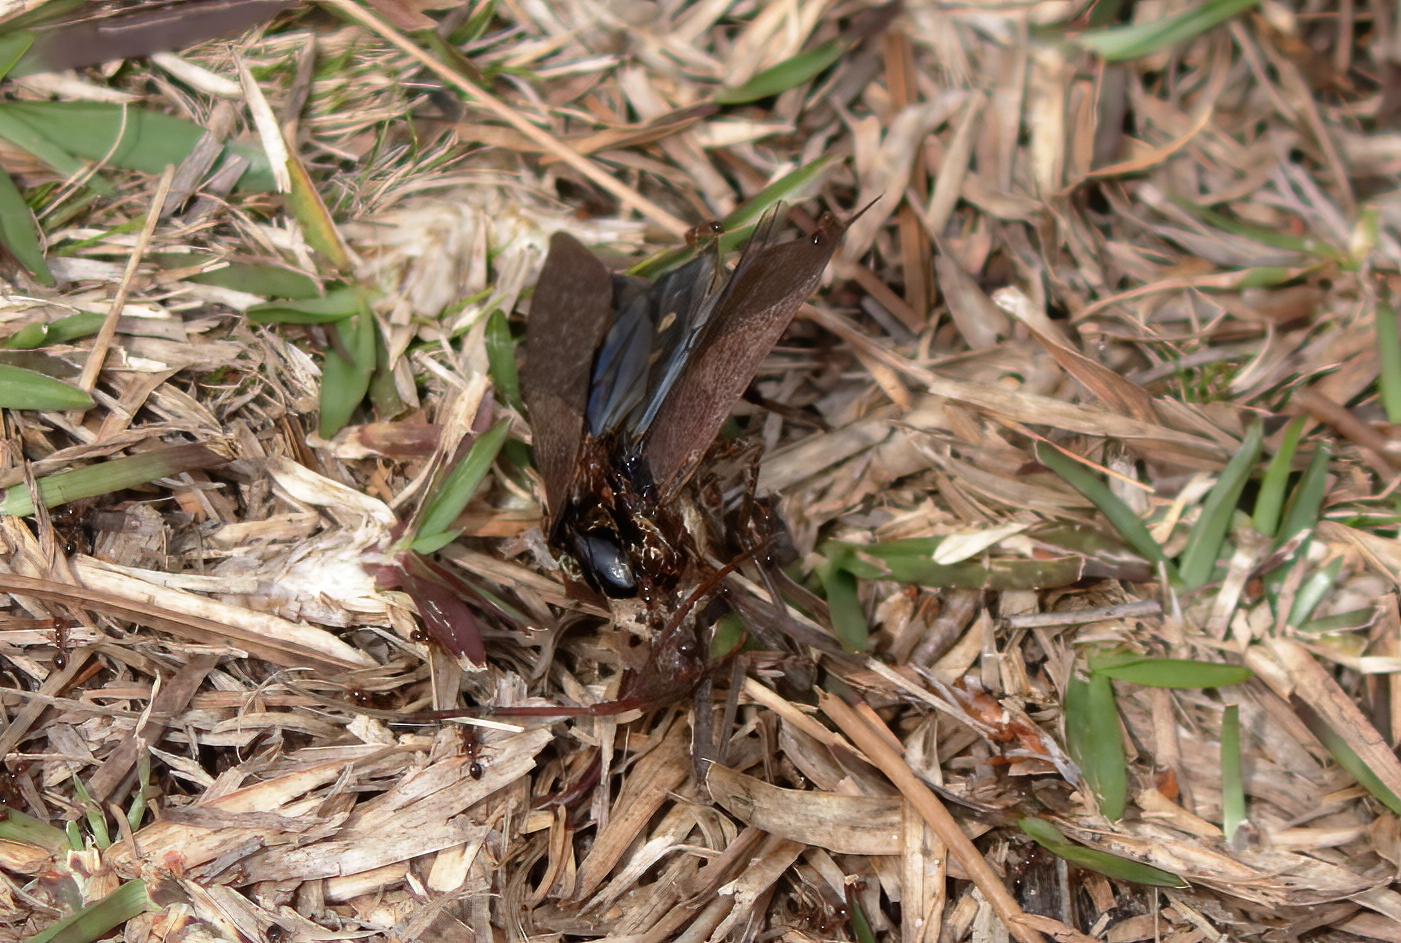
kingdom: Animalia
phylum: Arthropoda
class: Insecta
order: Hemiptera
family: Coreidae
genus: Acanthocephala
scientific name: Acanthocephala declivis
